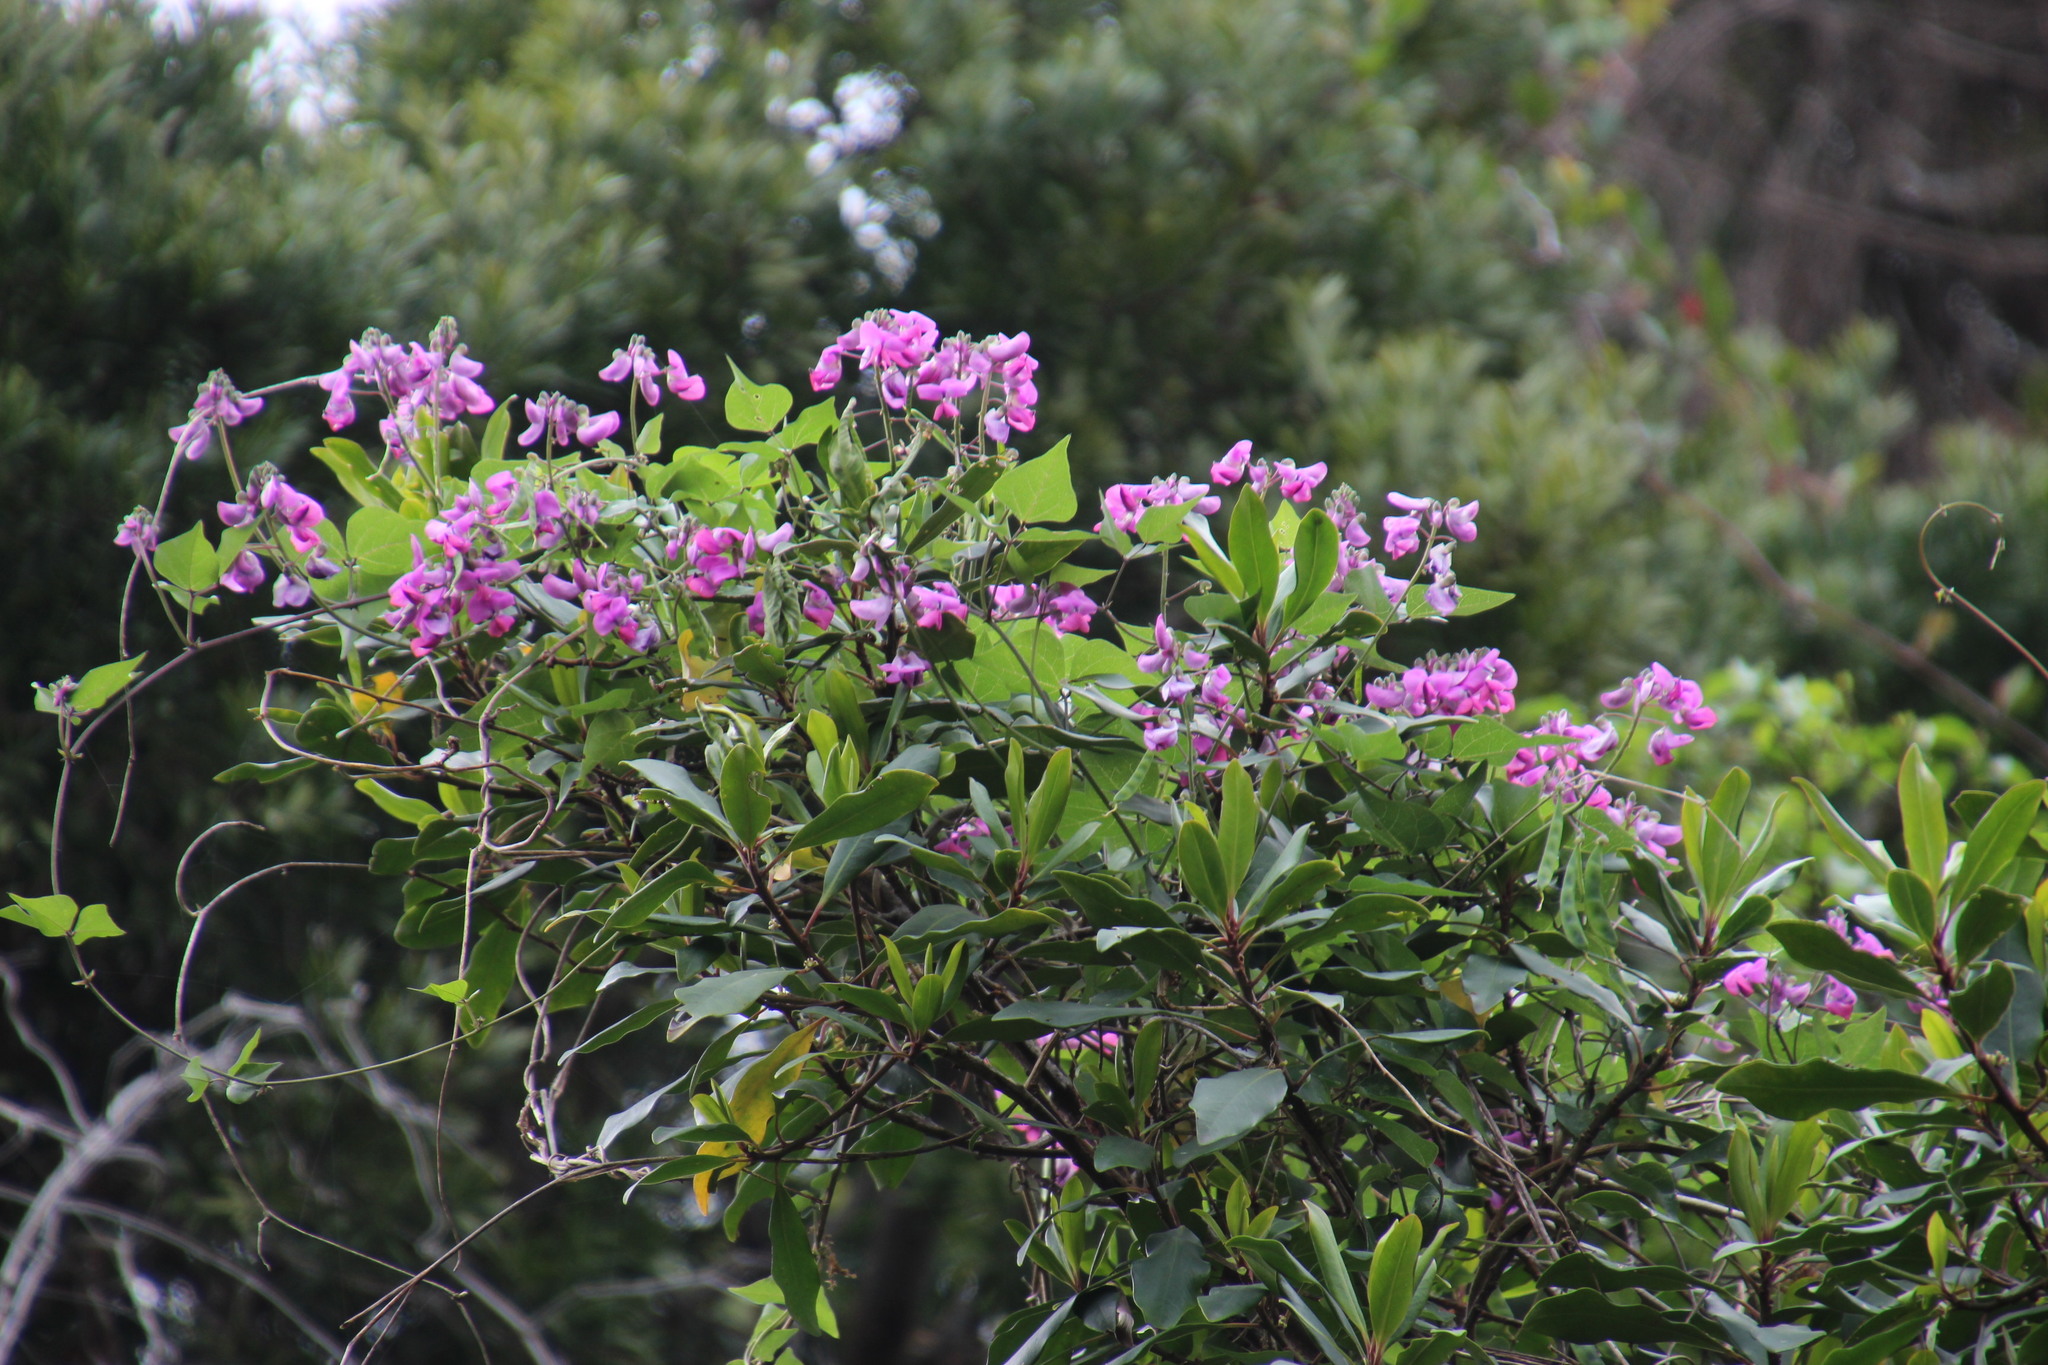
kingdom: Plantae
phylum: Tracheophyta
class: Magnoliopsida
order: Fabales
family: Fabaceae
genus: Dipogon
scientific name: Dipogon lignosus
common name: Okie bean
